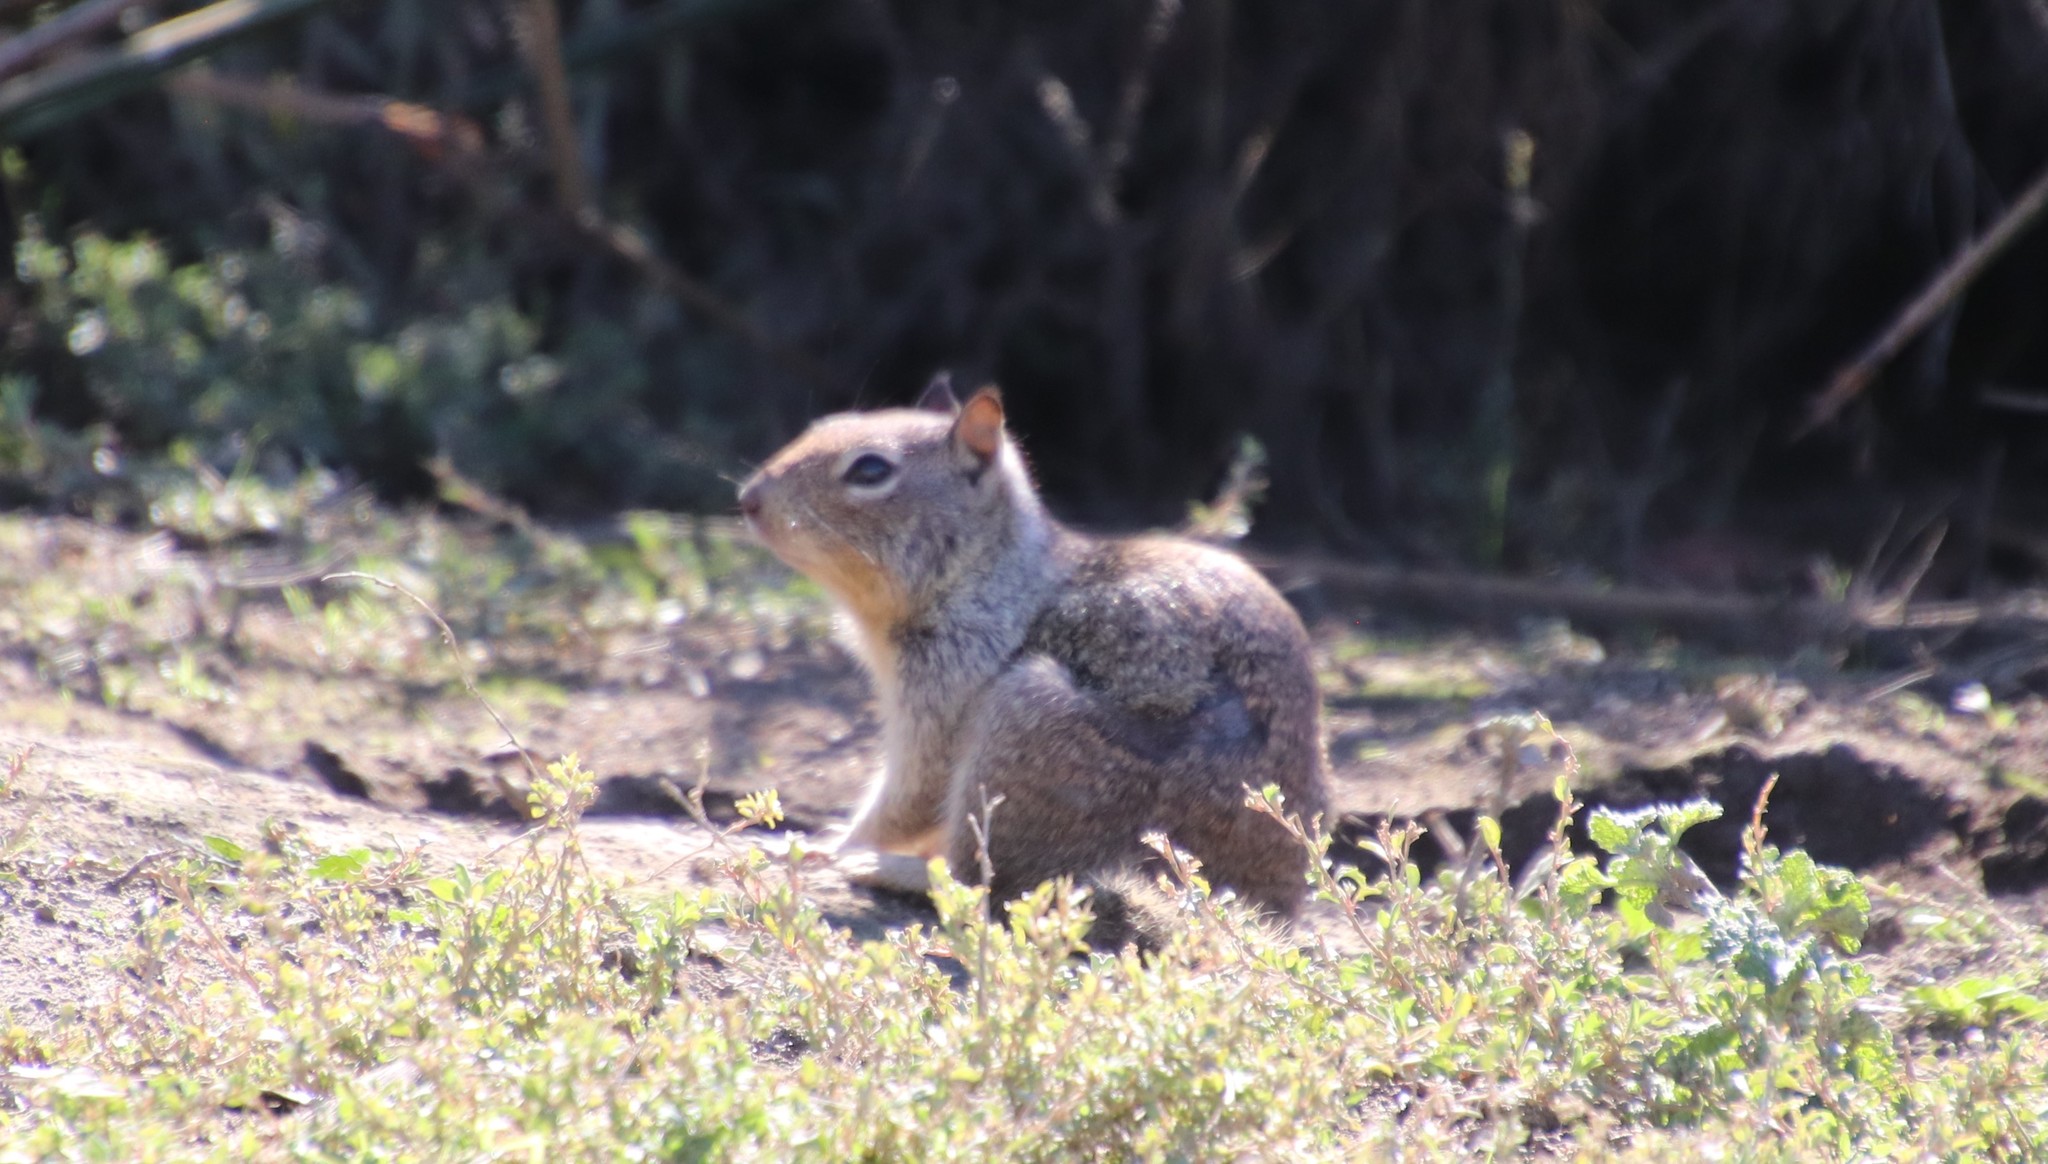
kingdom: Animalia
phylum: Chordata
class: Mammalia
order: Rodentia
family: Sciuridae
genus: Otospermophilus
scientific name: Otospermophilus beecheyi
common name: California ground squirrel
